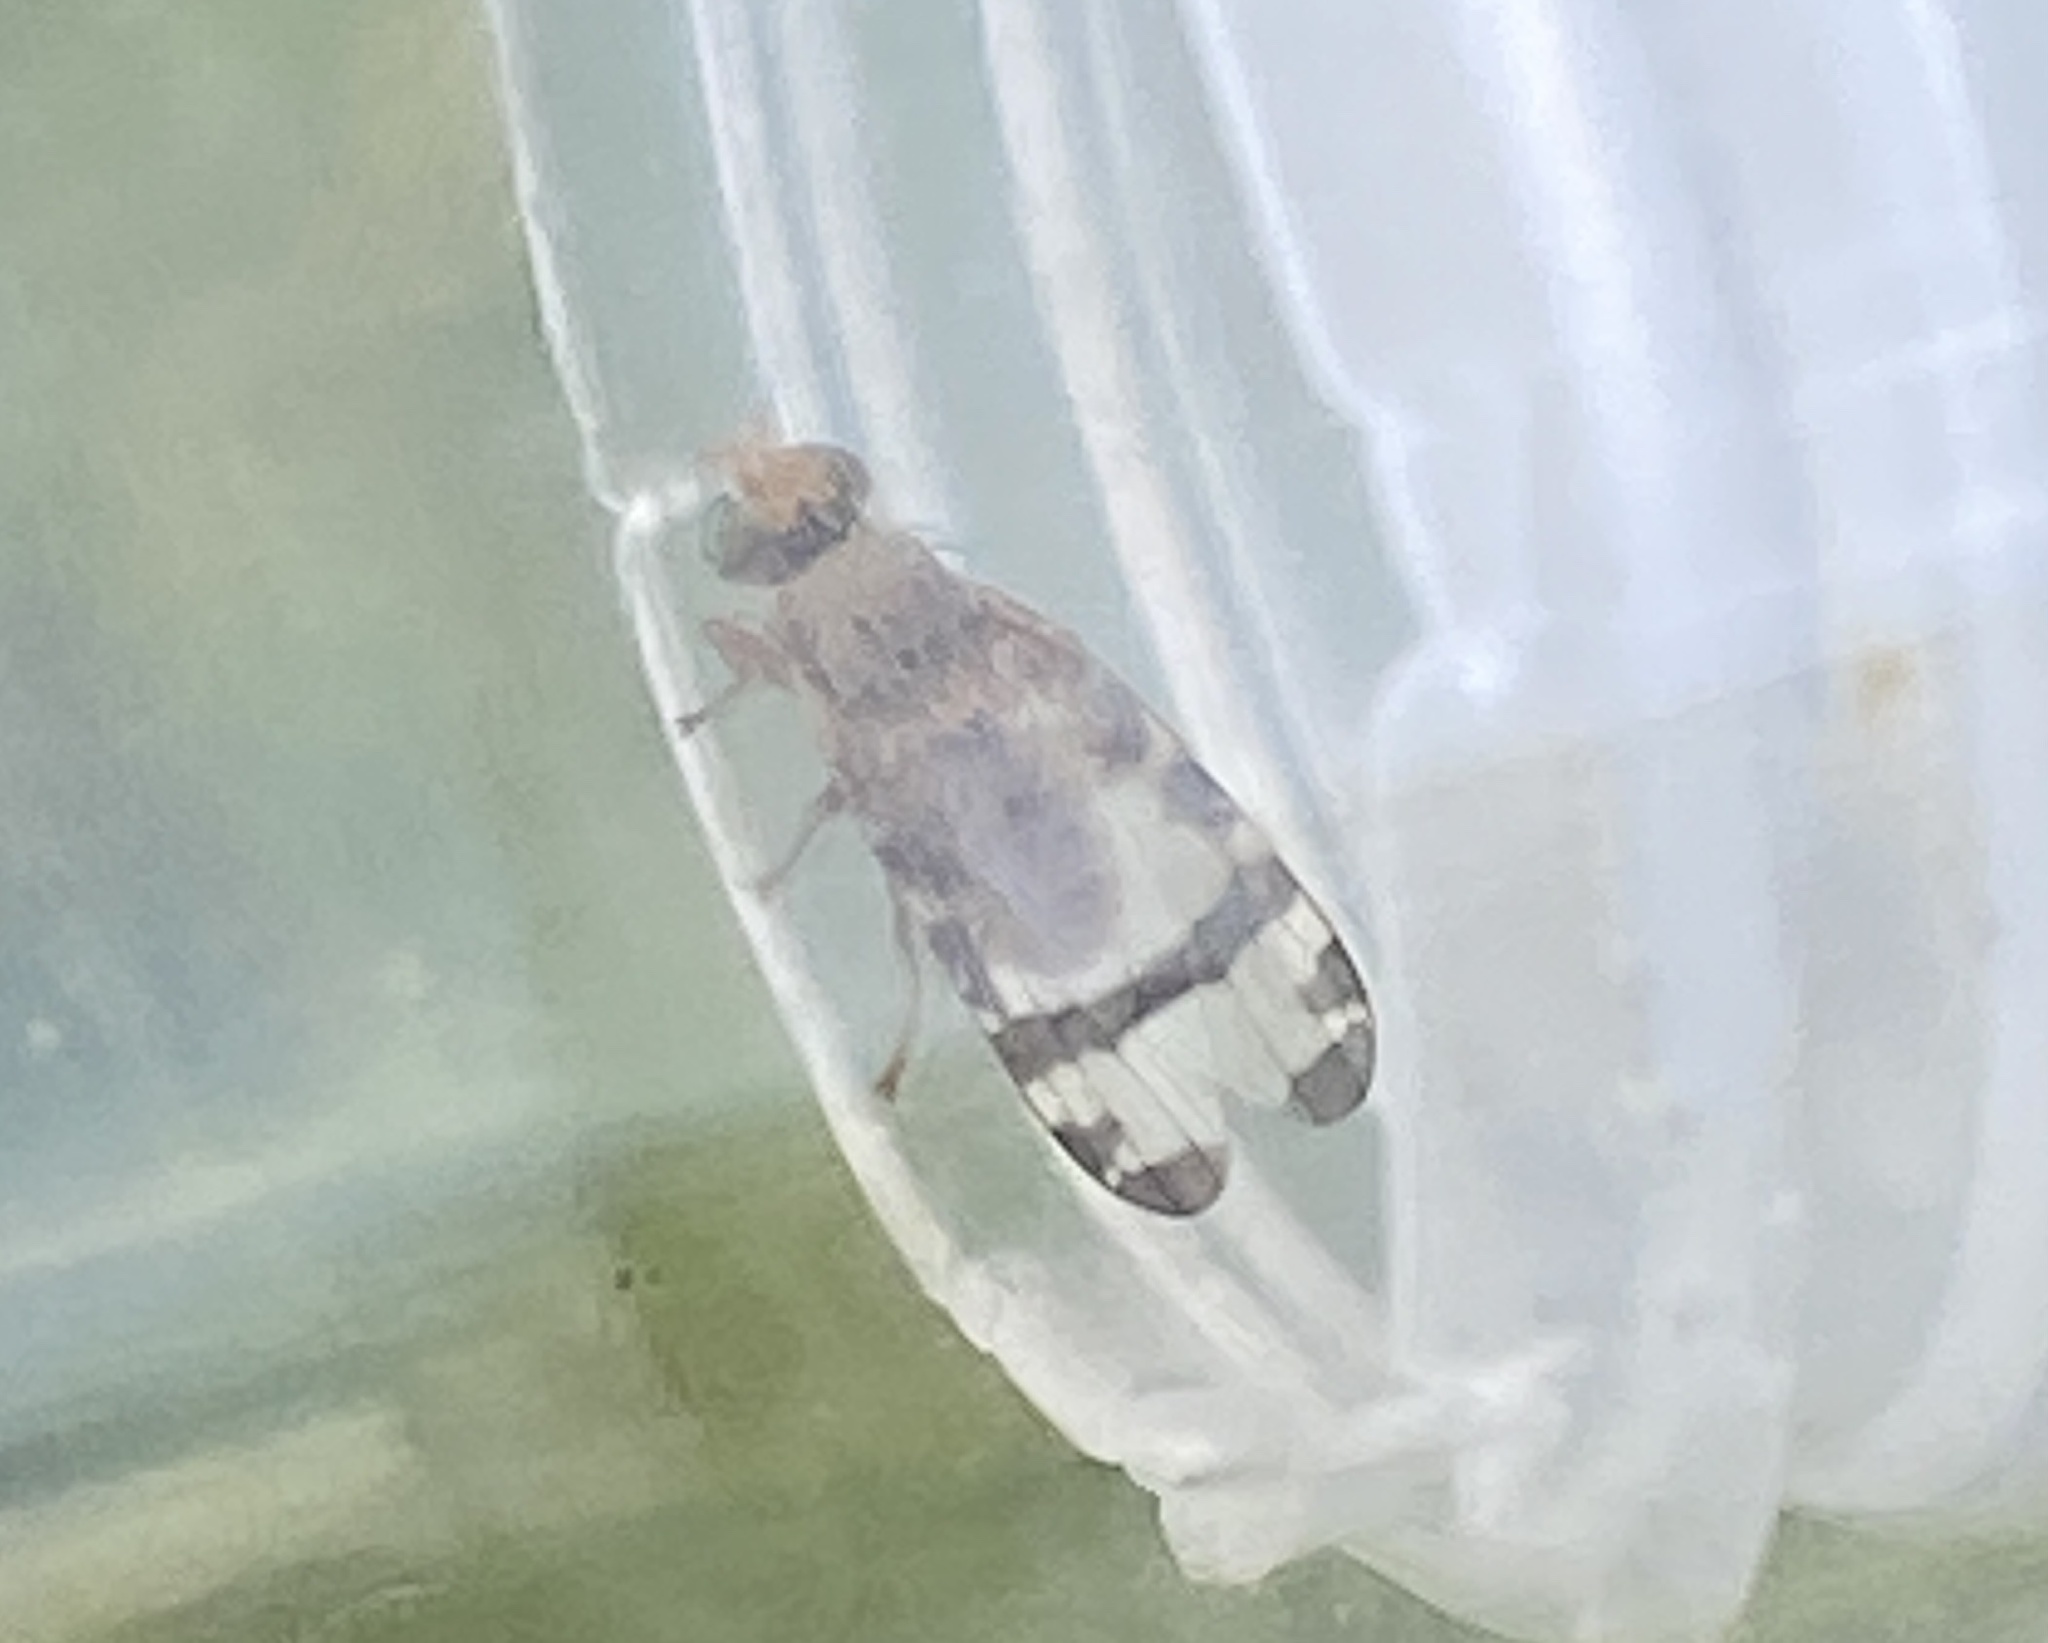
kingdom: Animalia
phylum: Arthropoda
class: Insecta
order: Diptera
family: Tephritidae
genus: Sphenella
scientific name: Sphenella marginata
